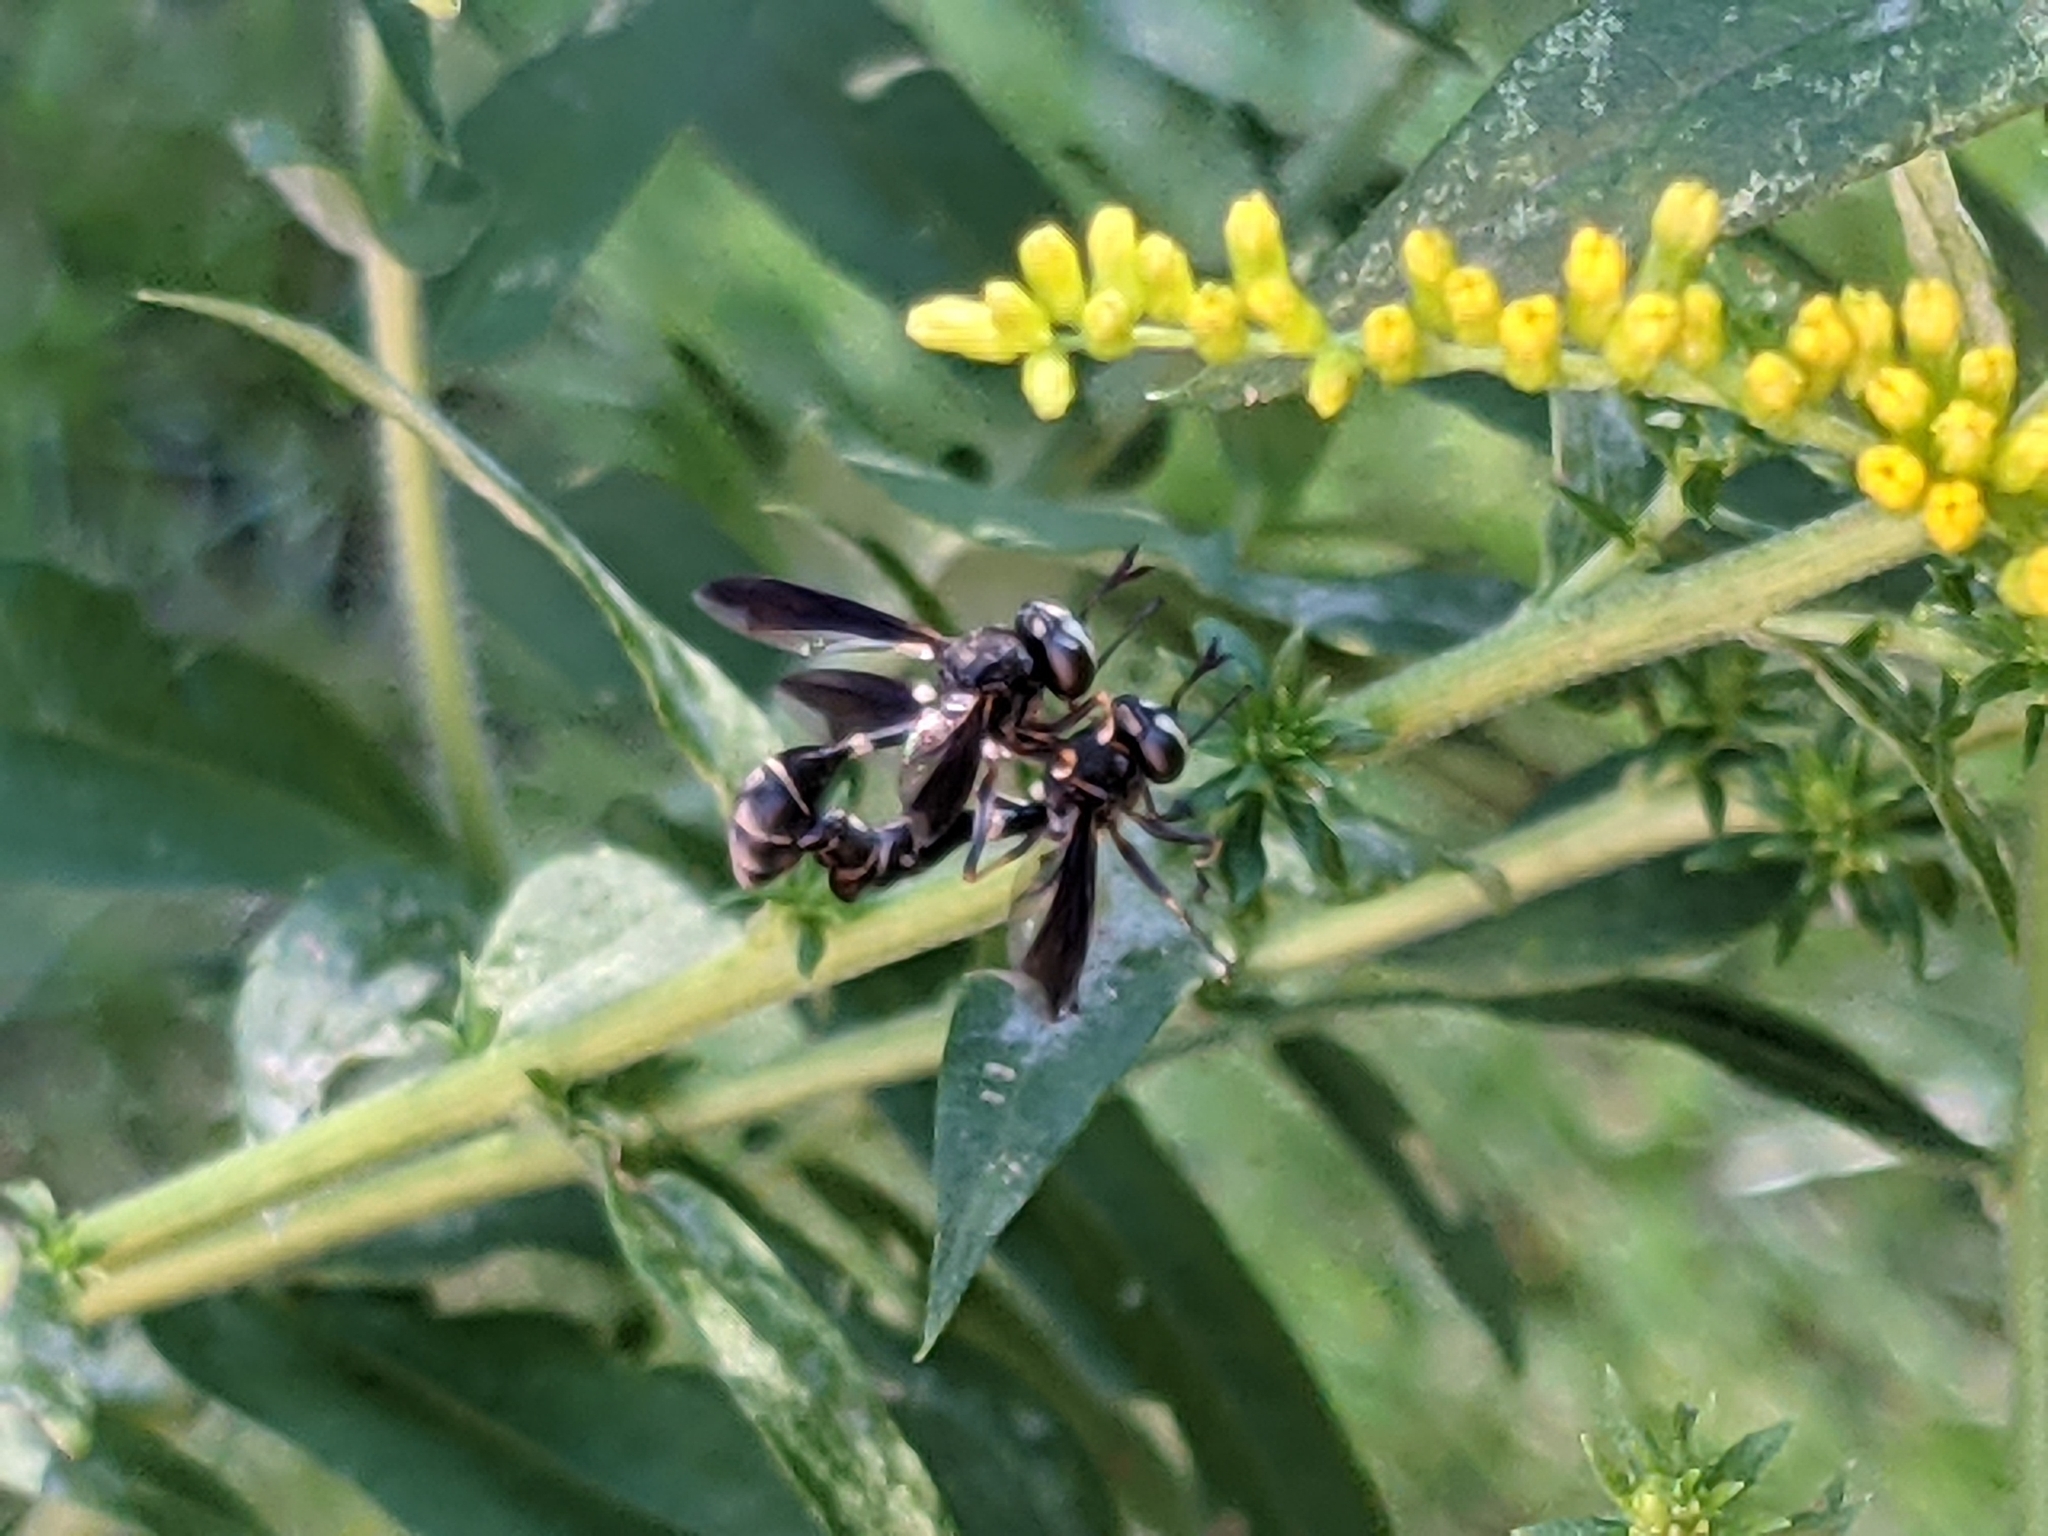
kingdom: Animalia
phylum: Arthropoda
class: Insecta
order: Diptera
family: Conopidae
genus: Physocephala
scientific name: Physocephala tibialis
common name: Common eastern physocephala
